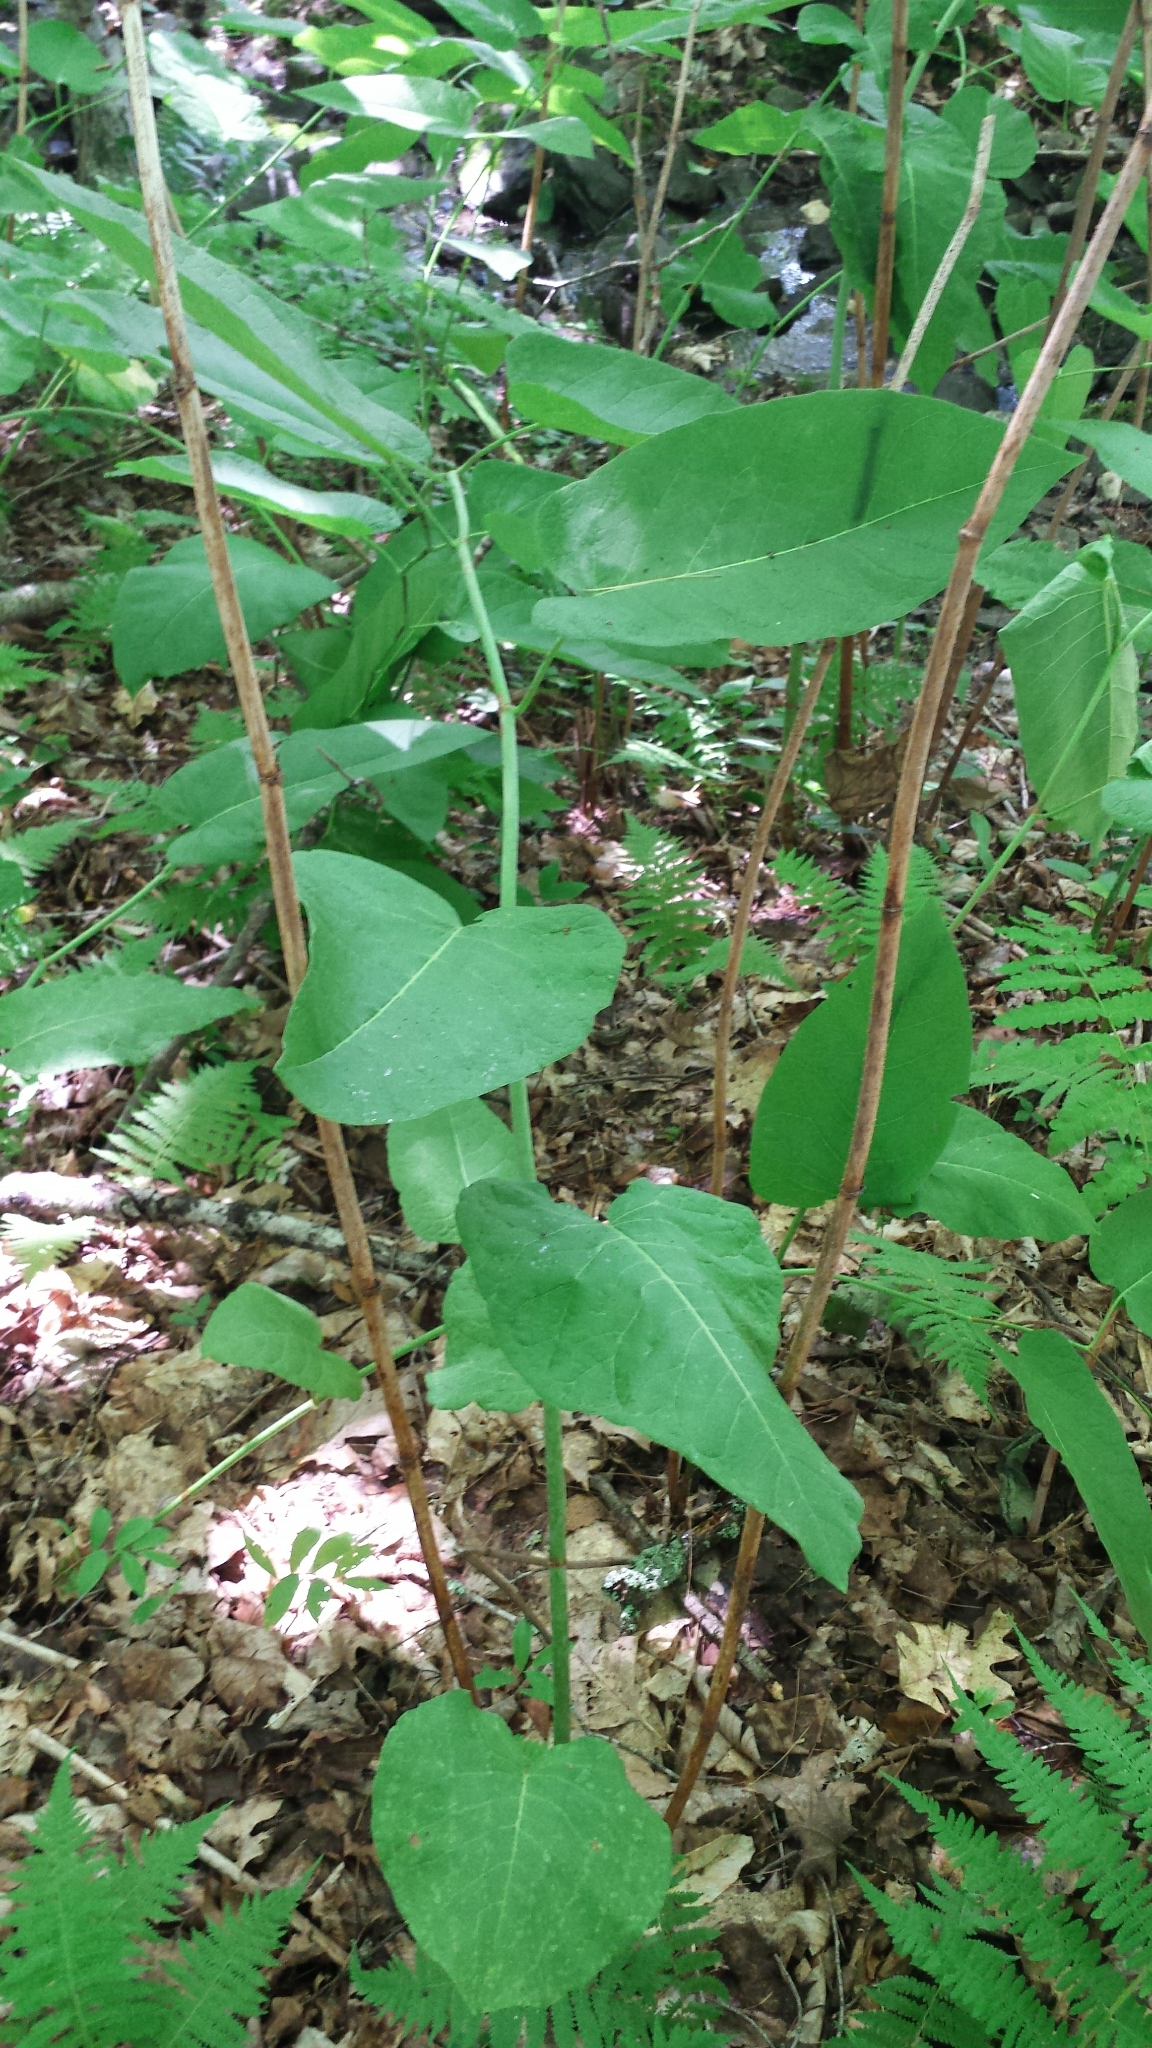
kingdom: Plantae
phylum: Tracheophyta
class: Magnoliopsida
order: Caryophyllales
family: Polygonaceae
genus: Reynoutria
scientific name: Reynoutria sachalinensis
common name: Giant knotweed
